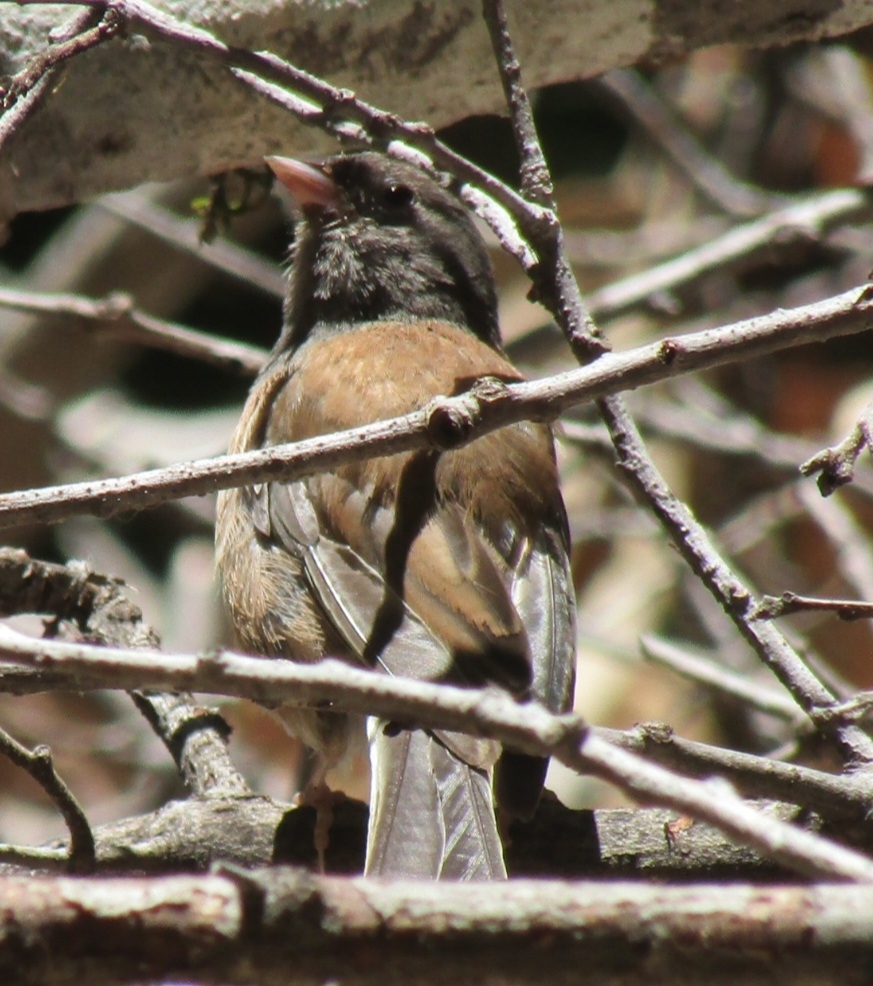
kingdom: Animalia
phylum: Chordata
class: Aves
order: Passeriformes
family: Passerellidae
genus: Junco
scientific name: Junco hyemalis
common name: Dark-eyed junco
